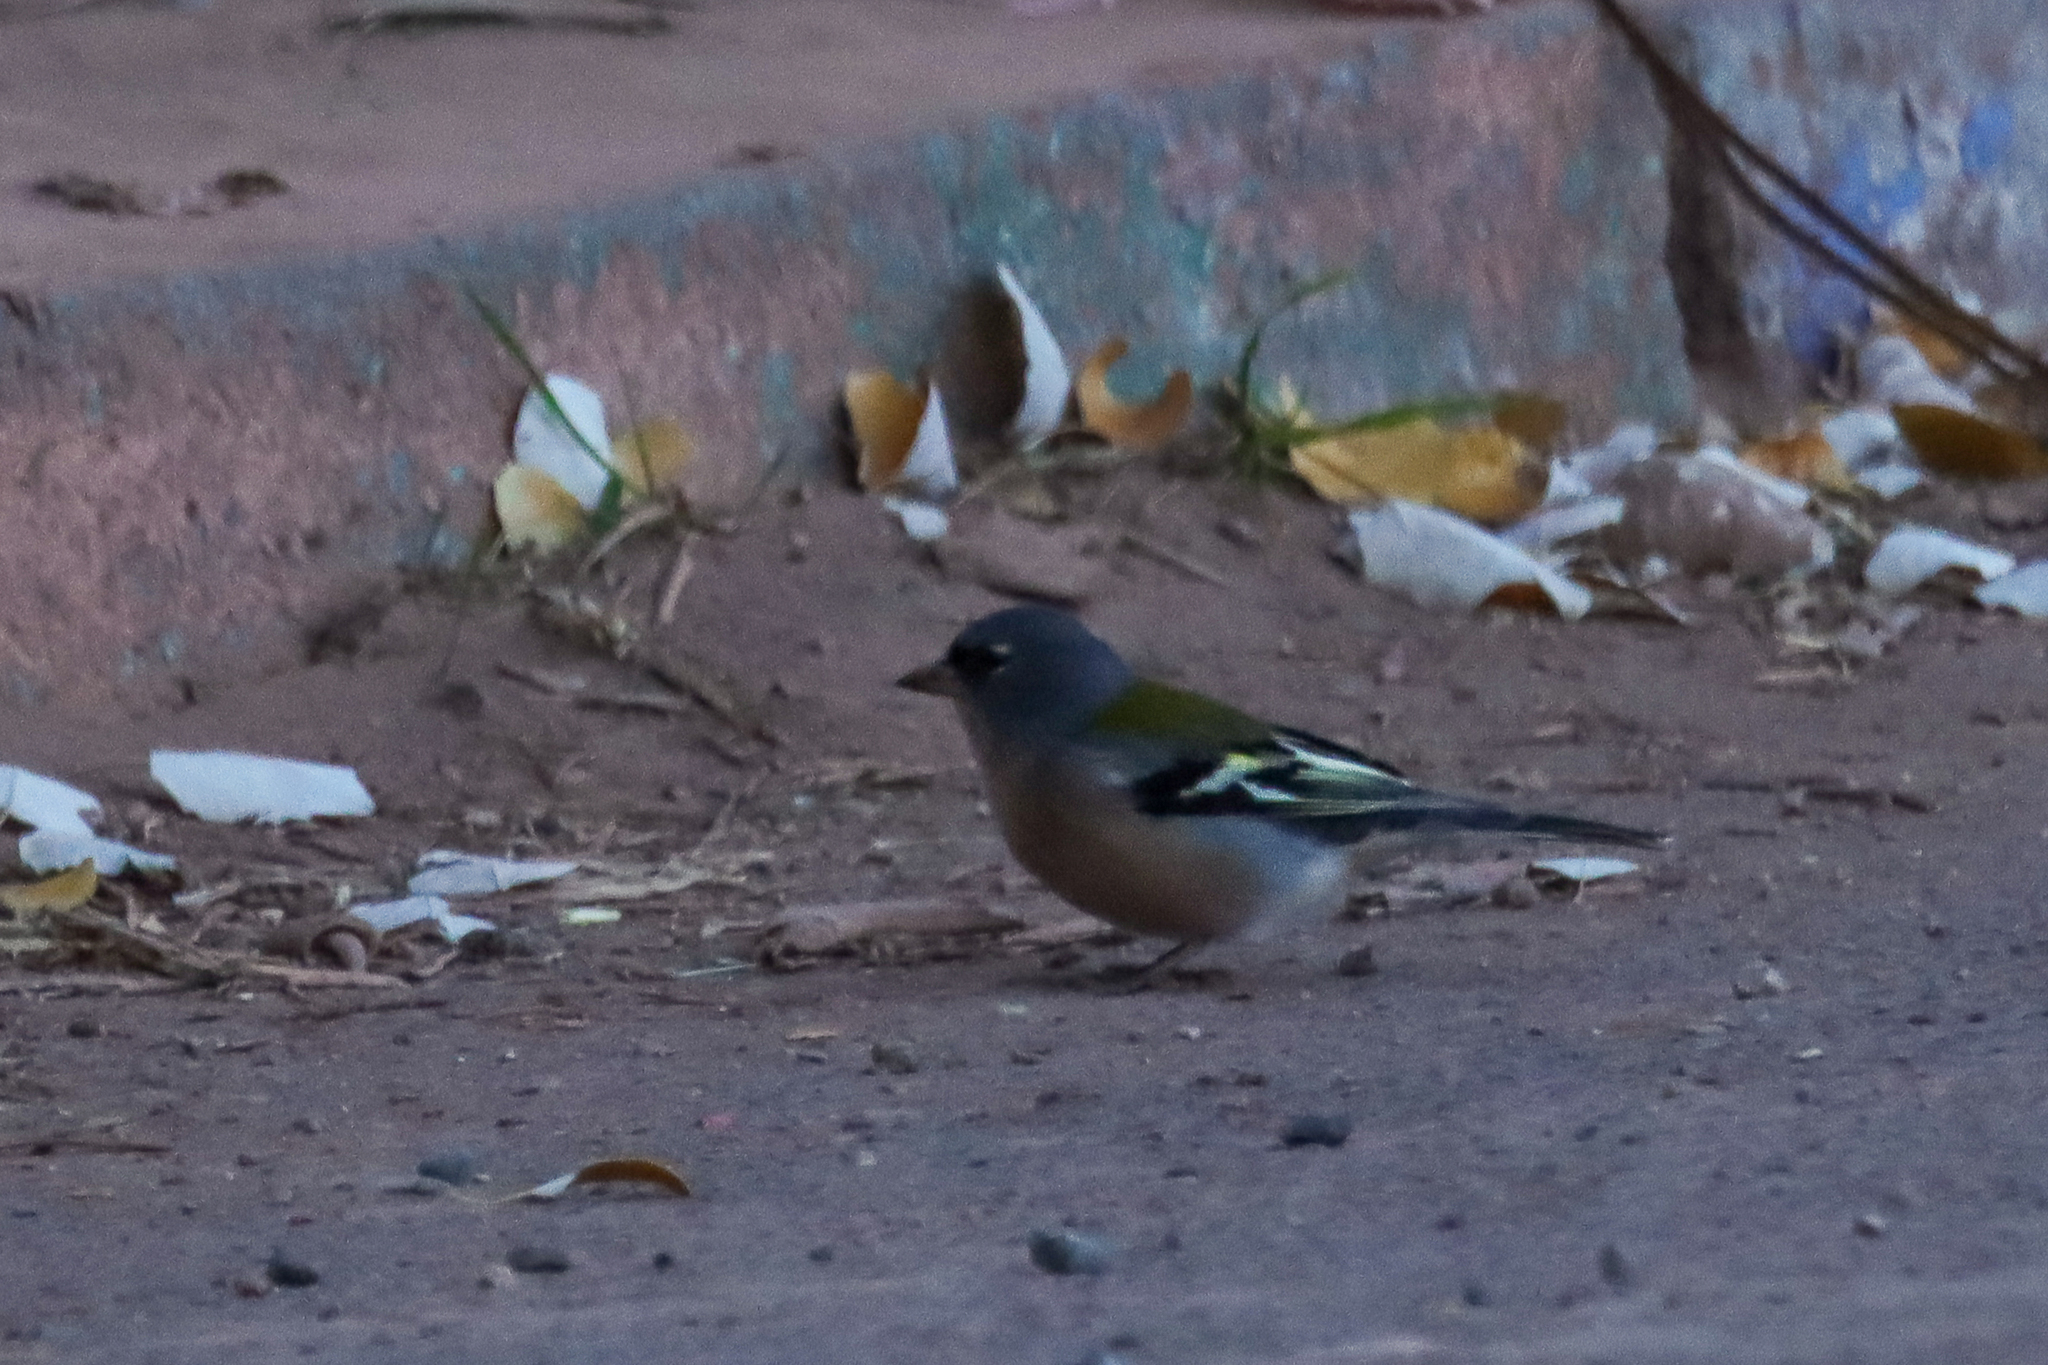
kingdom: Animalia
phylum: Chordata
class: Aves
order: Passeriformes
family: Fringillidae
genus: Fringilla
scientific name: Fringilla spodiogenys
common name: African chaffinch
